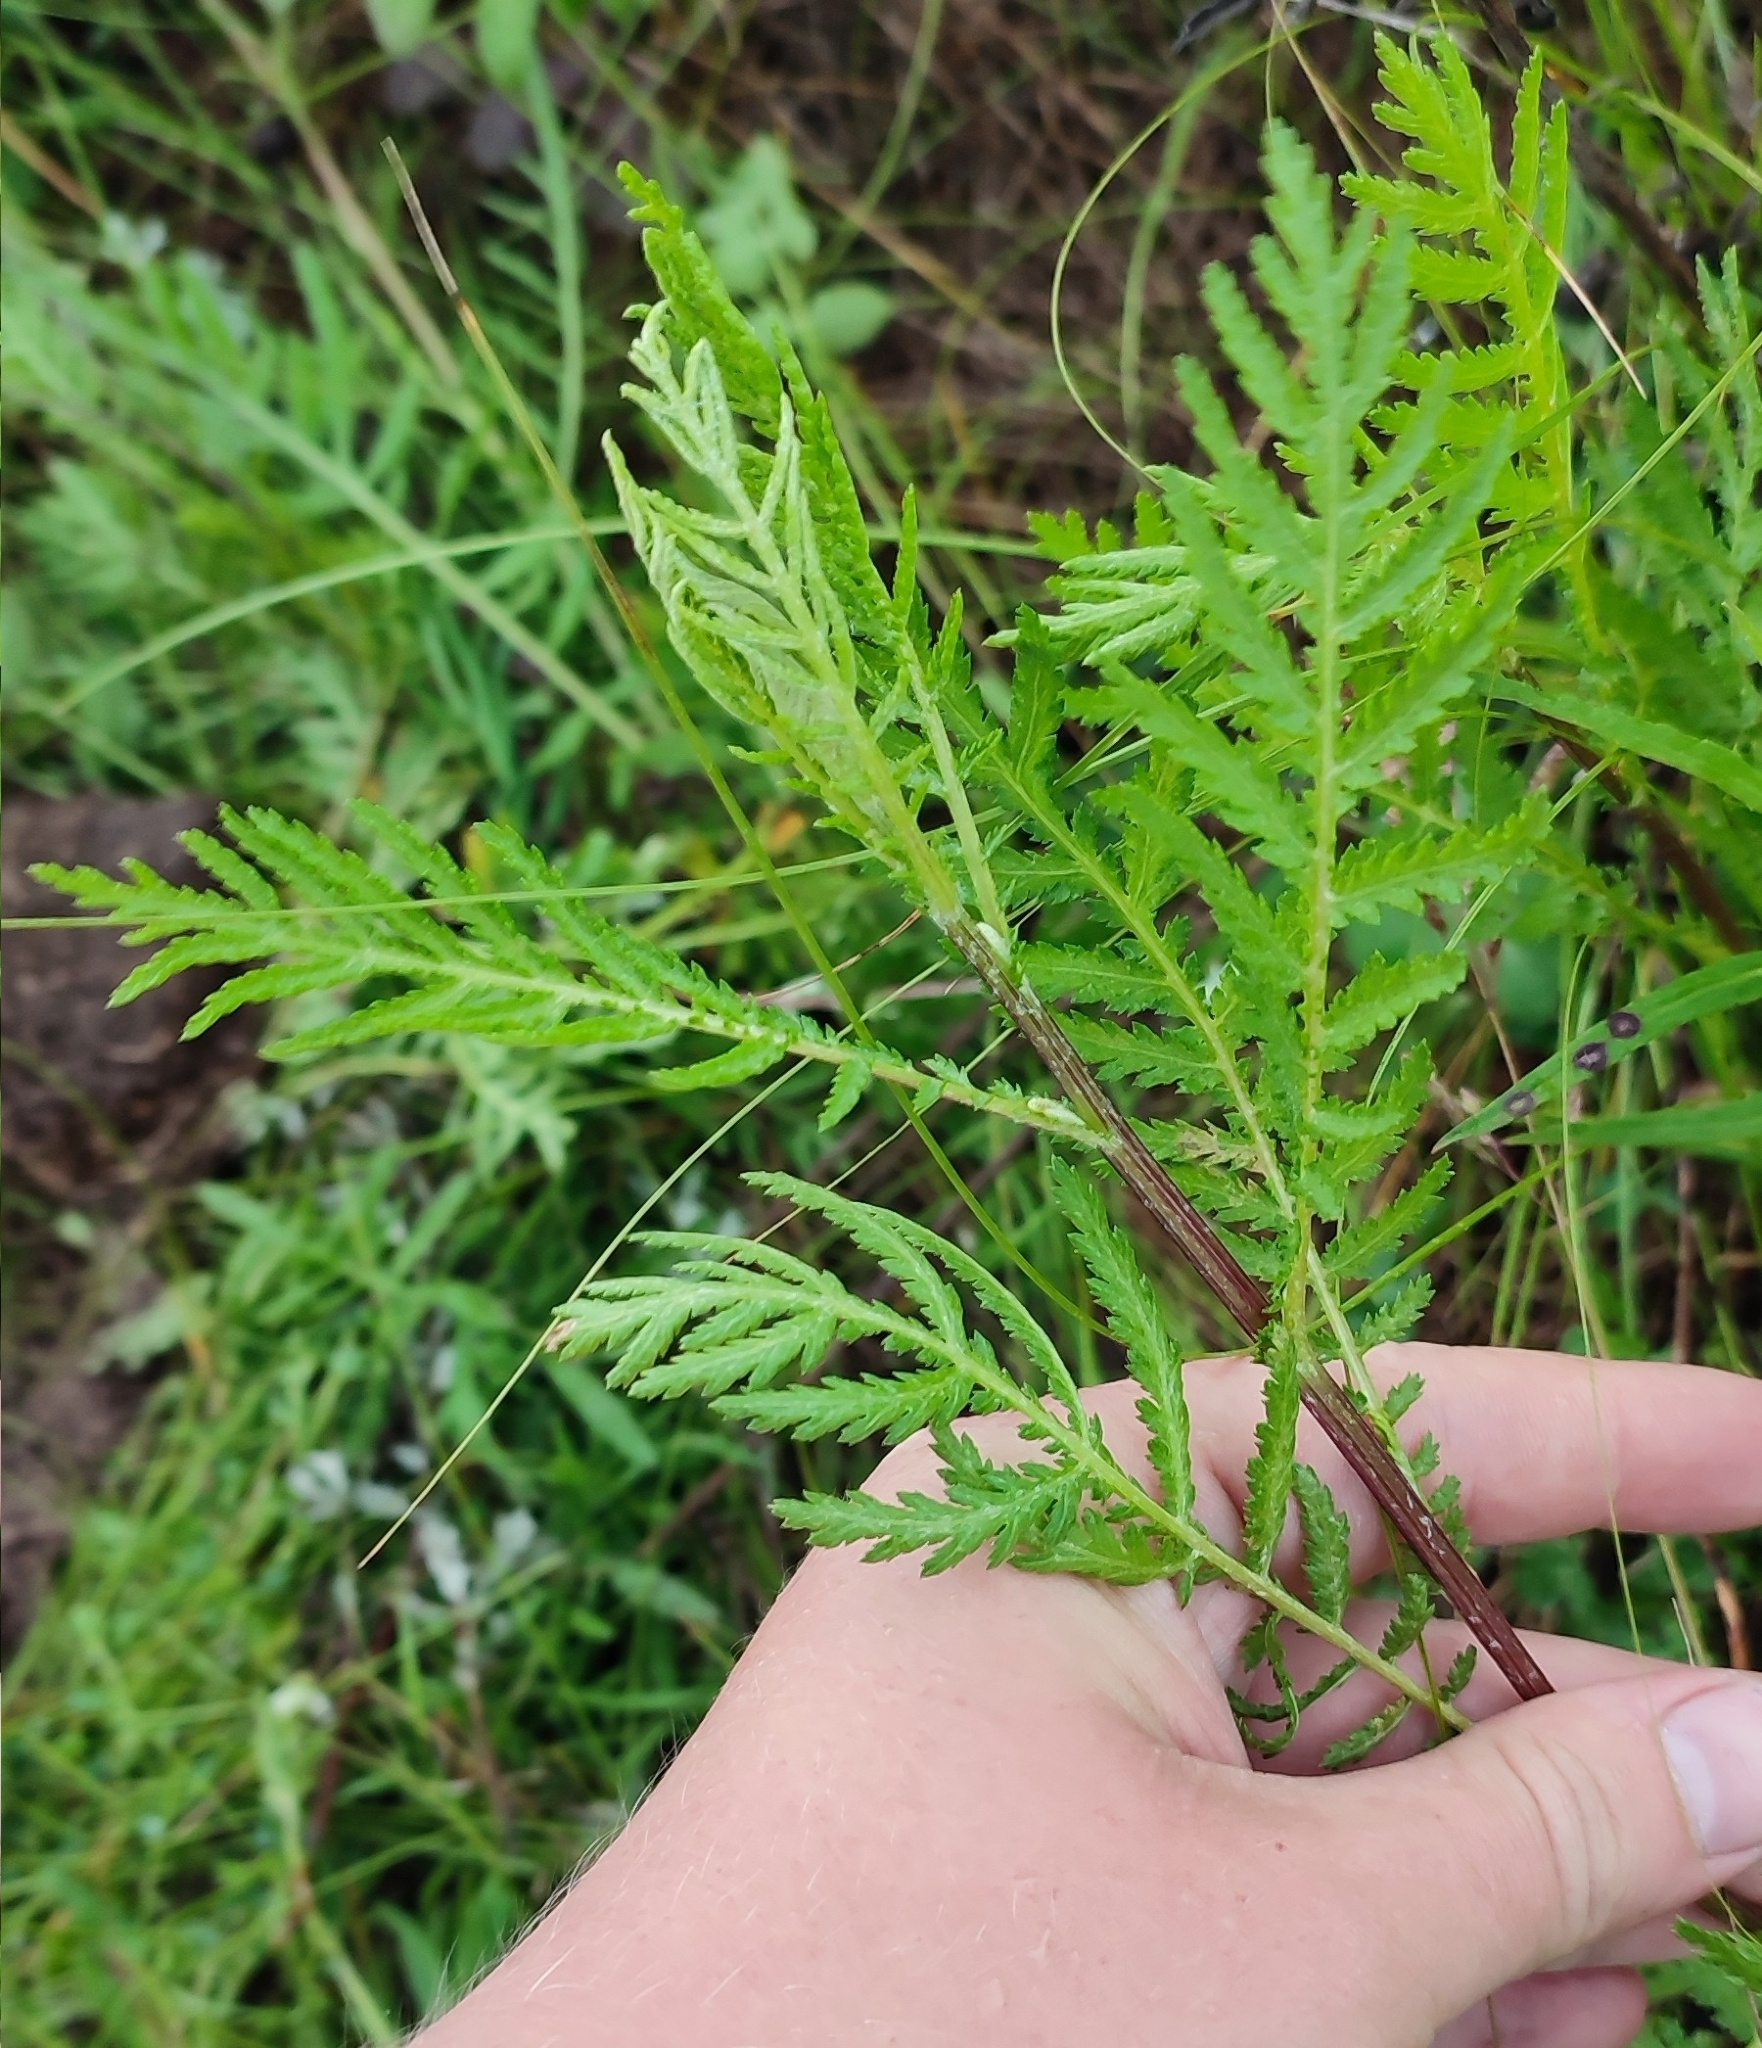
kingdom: Plantae
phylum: Tracheophyta
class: Magnoliopsida
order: Asterales
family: Asteraceae
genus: Tanacetum
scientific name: Tanacetum vulgare
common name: Common tansy
